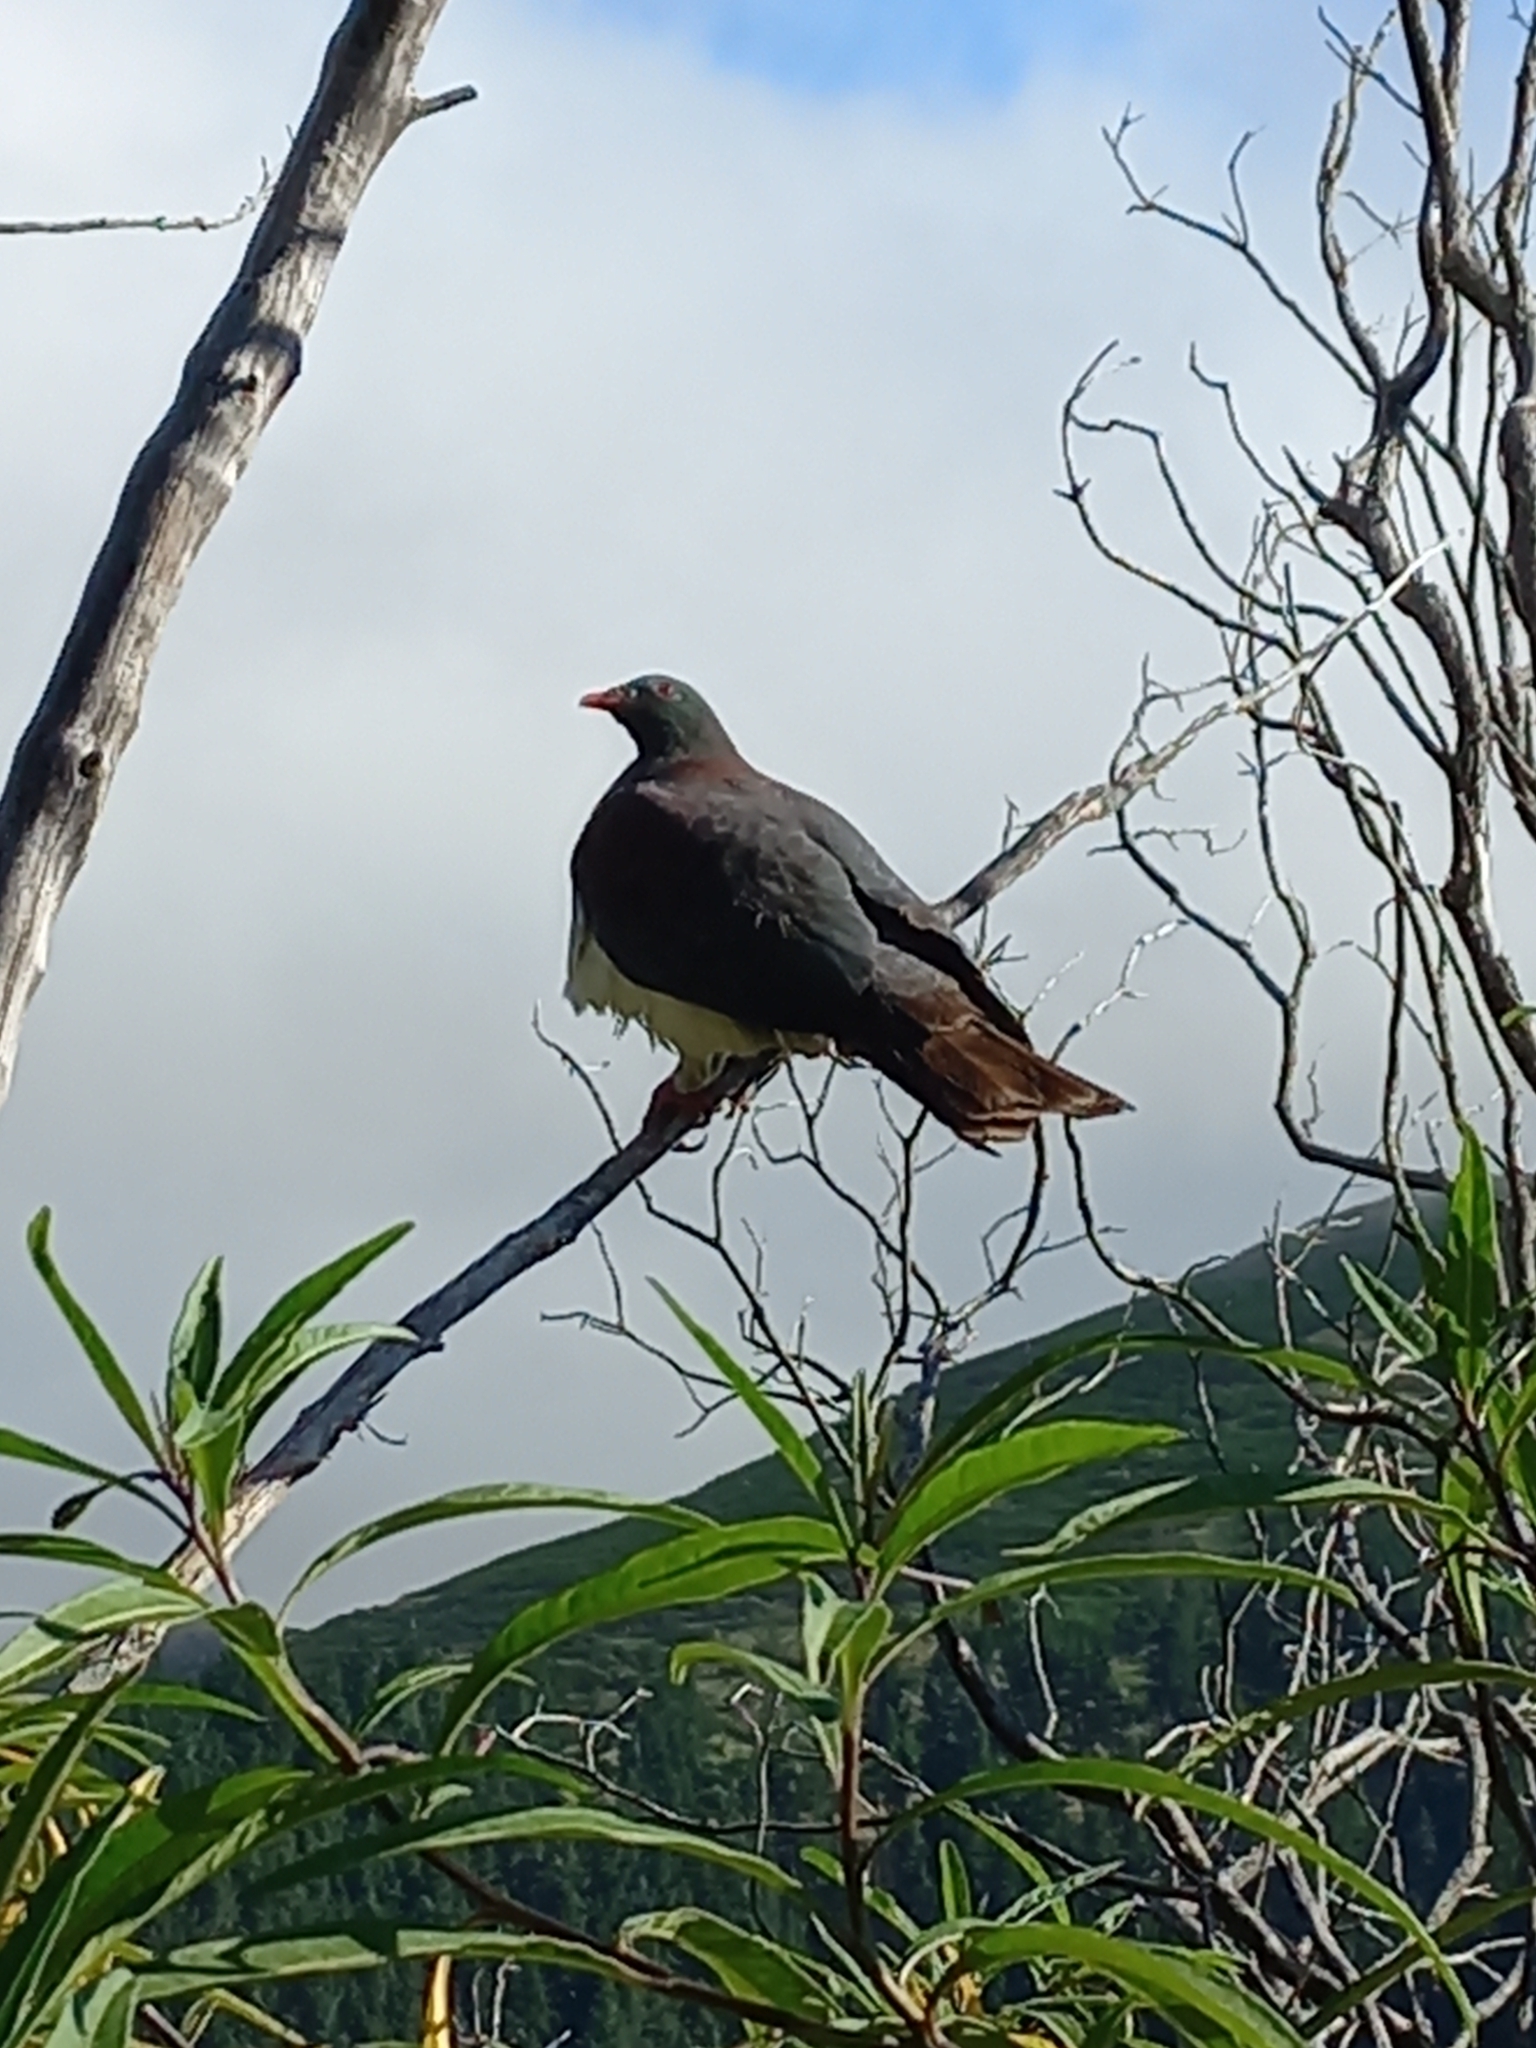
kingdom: Animalia
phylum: Chordata
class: Aves
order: Columbiformes
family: Columbidae
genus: Hemiphaga
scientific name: Hemiphaga novaeseelandiae
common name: New zealand pigeon
